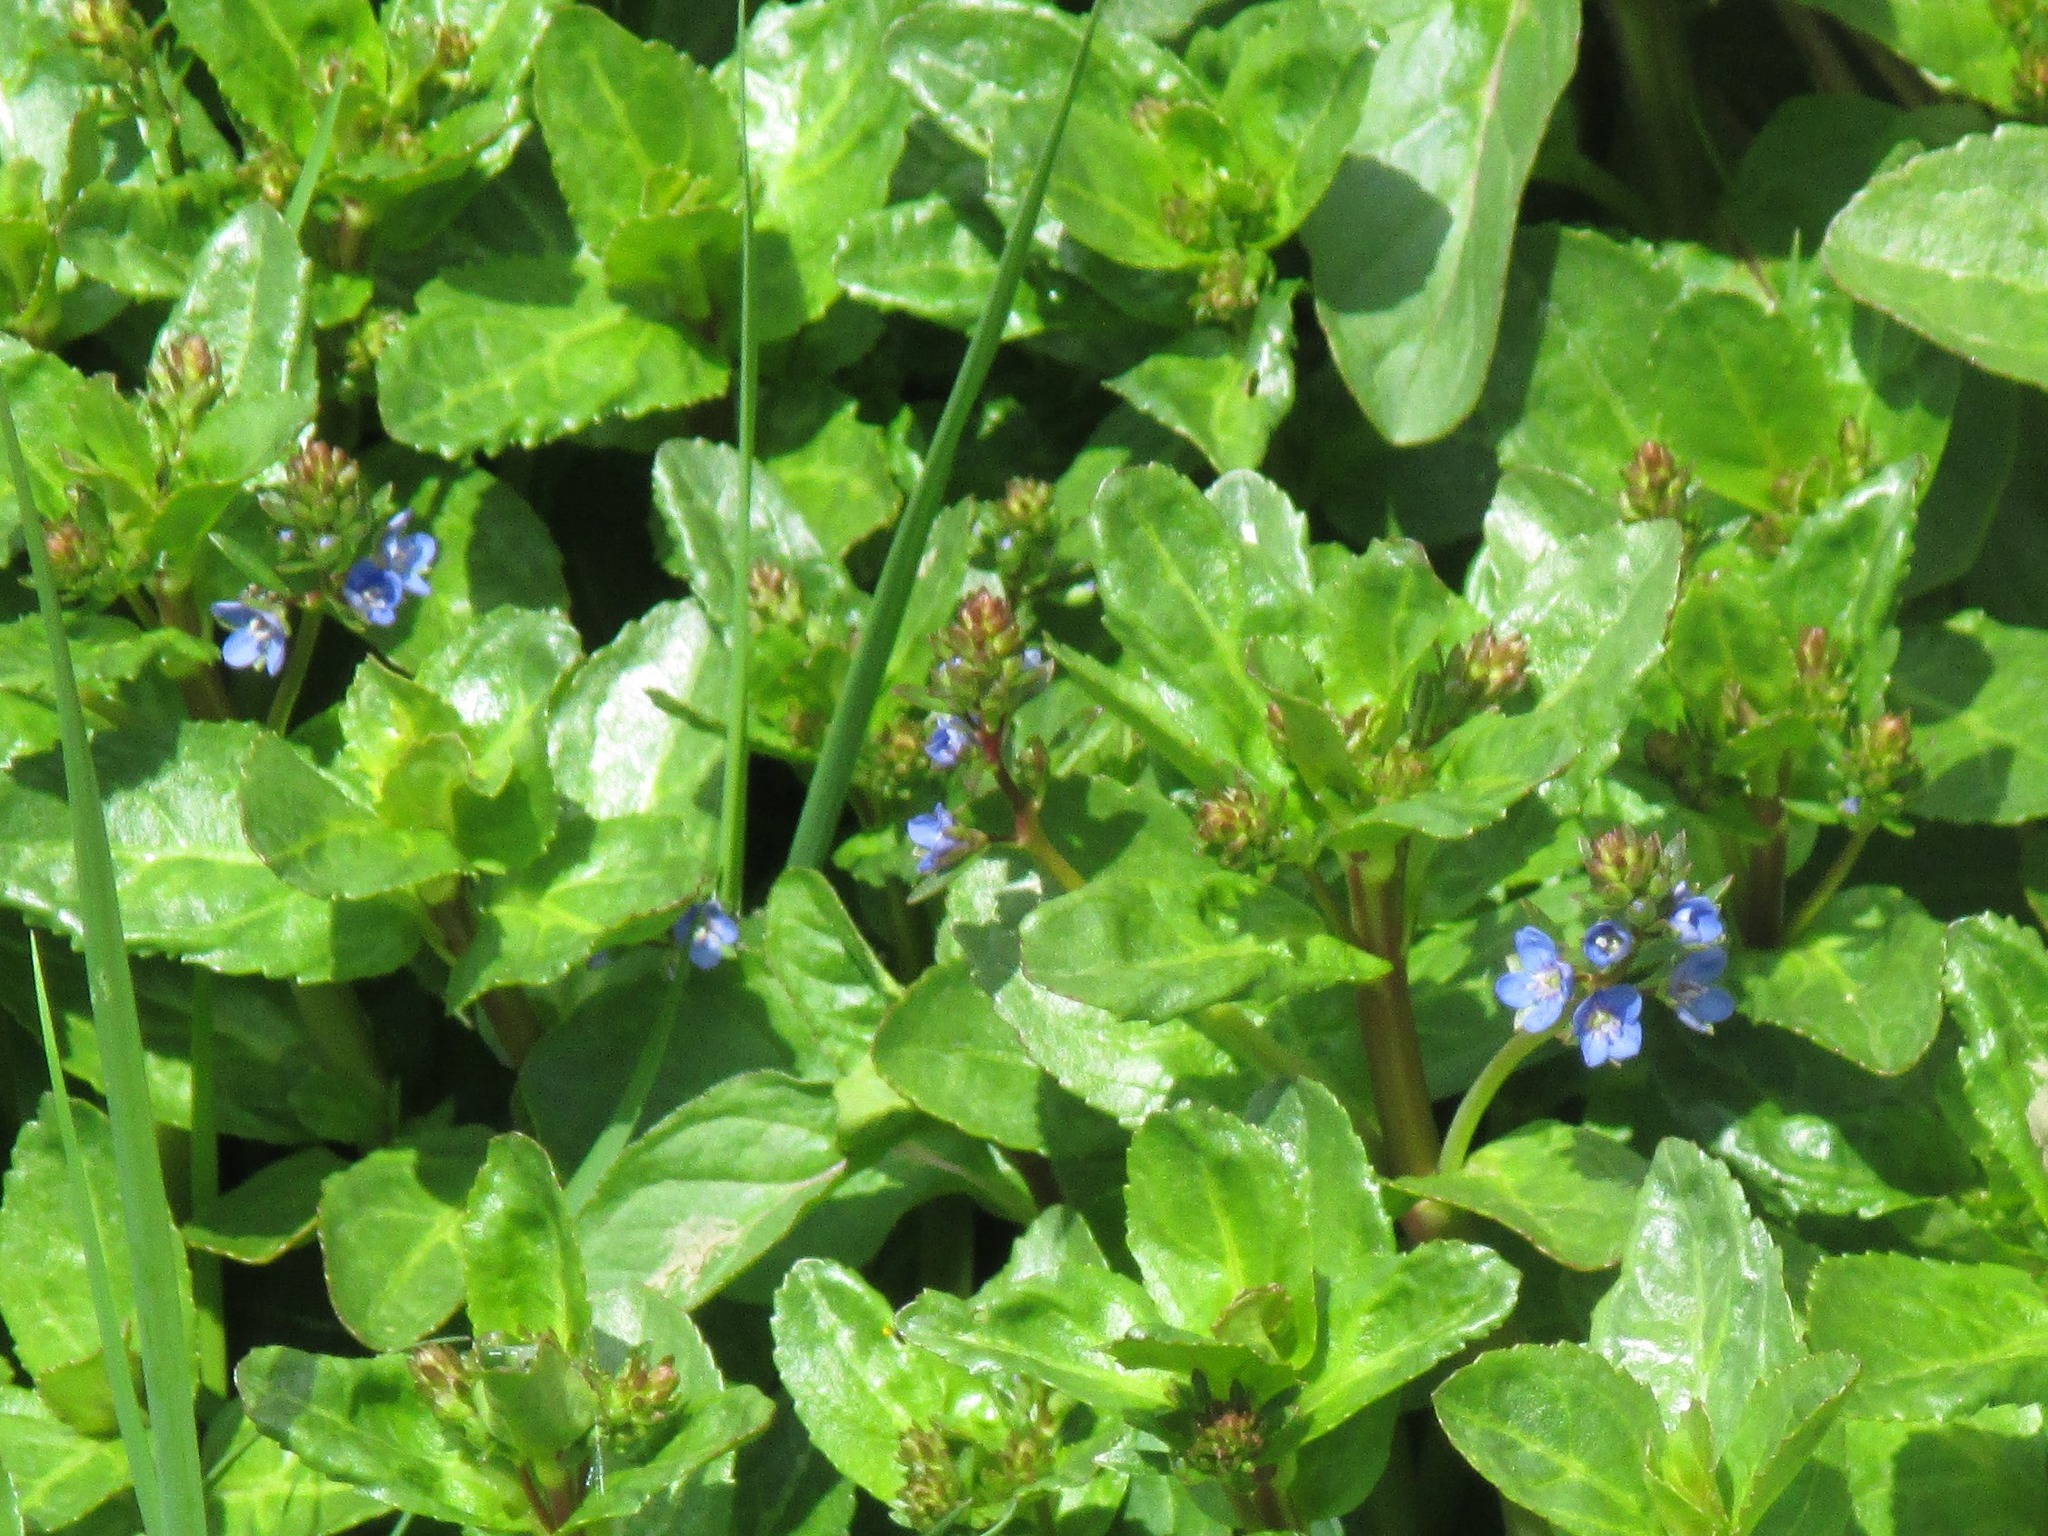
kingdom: Plantae
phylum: Tracheophyta
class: Magnoliopsida
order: Lamiales
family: Plantaginaceae
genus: Veronica
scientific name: Veronica beccabunga
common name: Brooklime
